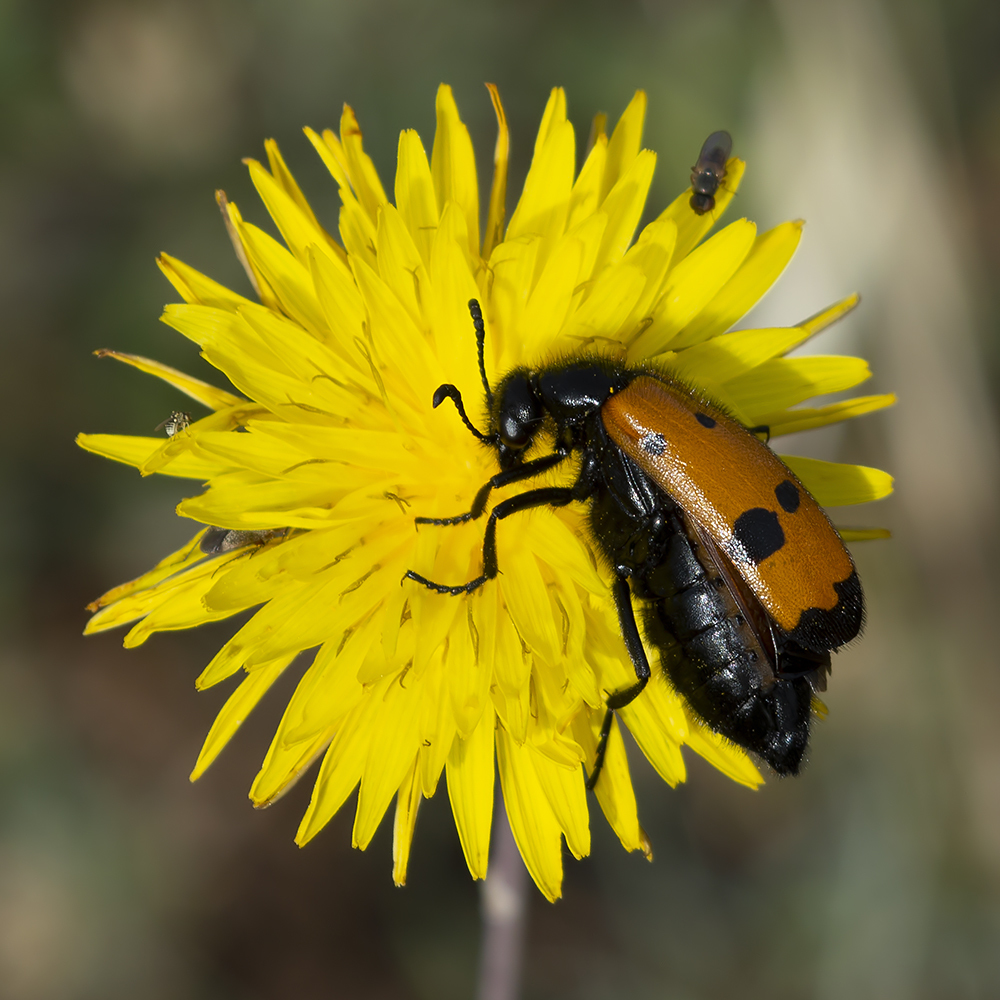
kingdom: Animalia
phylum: Arthropoda
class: Insecta
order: Coleoptera
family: Meloidae
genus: Mylabris
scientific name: Mylabris quadripunctata
